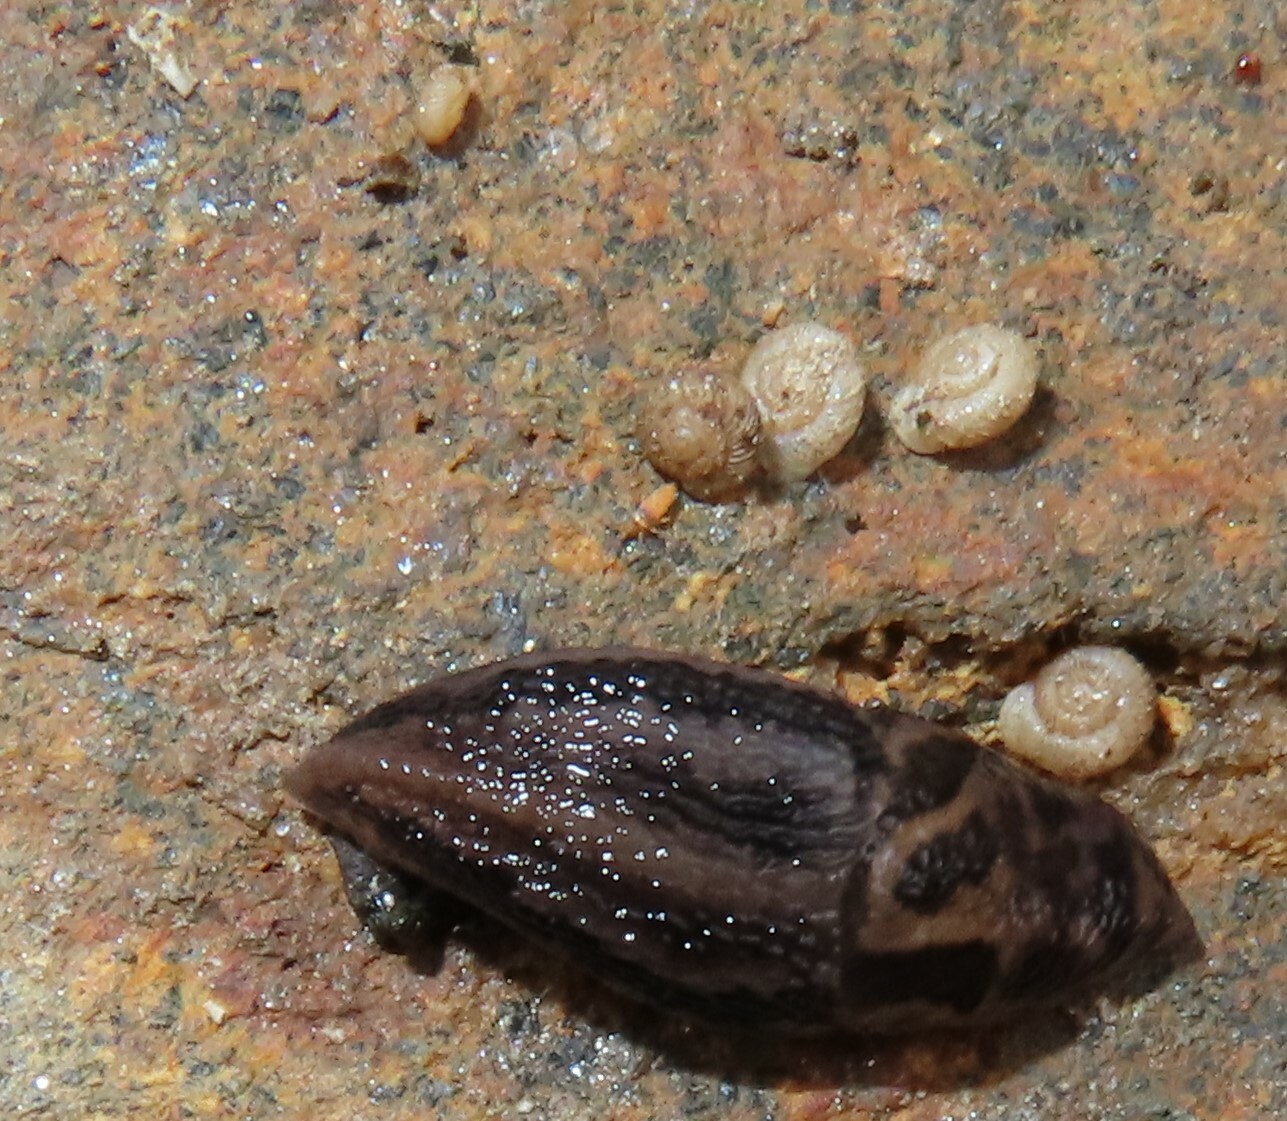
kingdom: Animalia
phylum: Mollusca
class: Gastropoda
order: Stylommatophora
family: Valloniidae
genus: Vallonia
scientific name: Vallonia costata
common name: Ribbed grass snail
